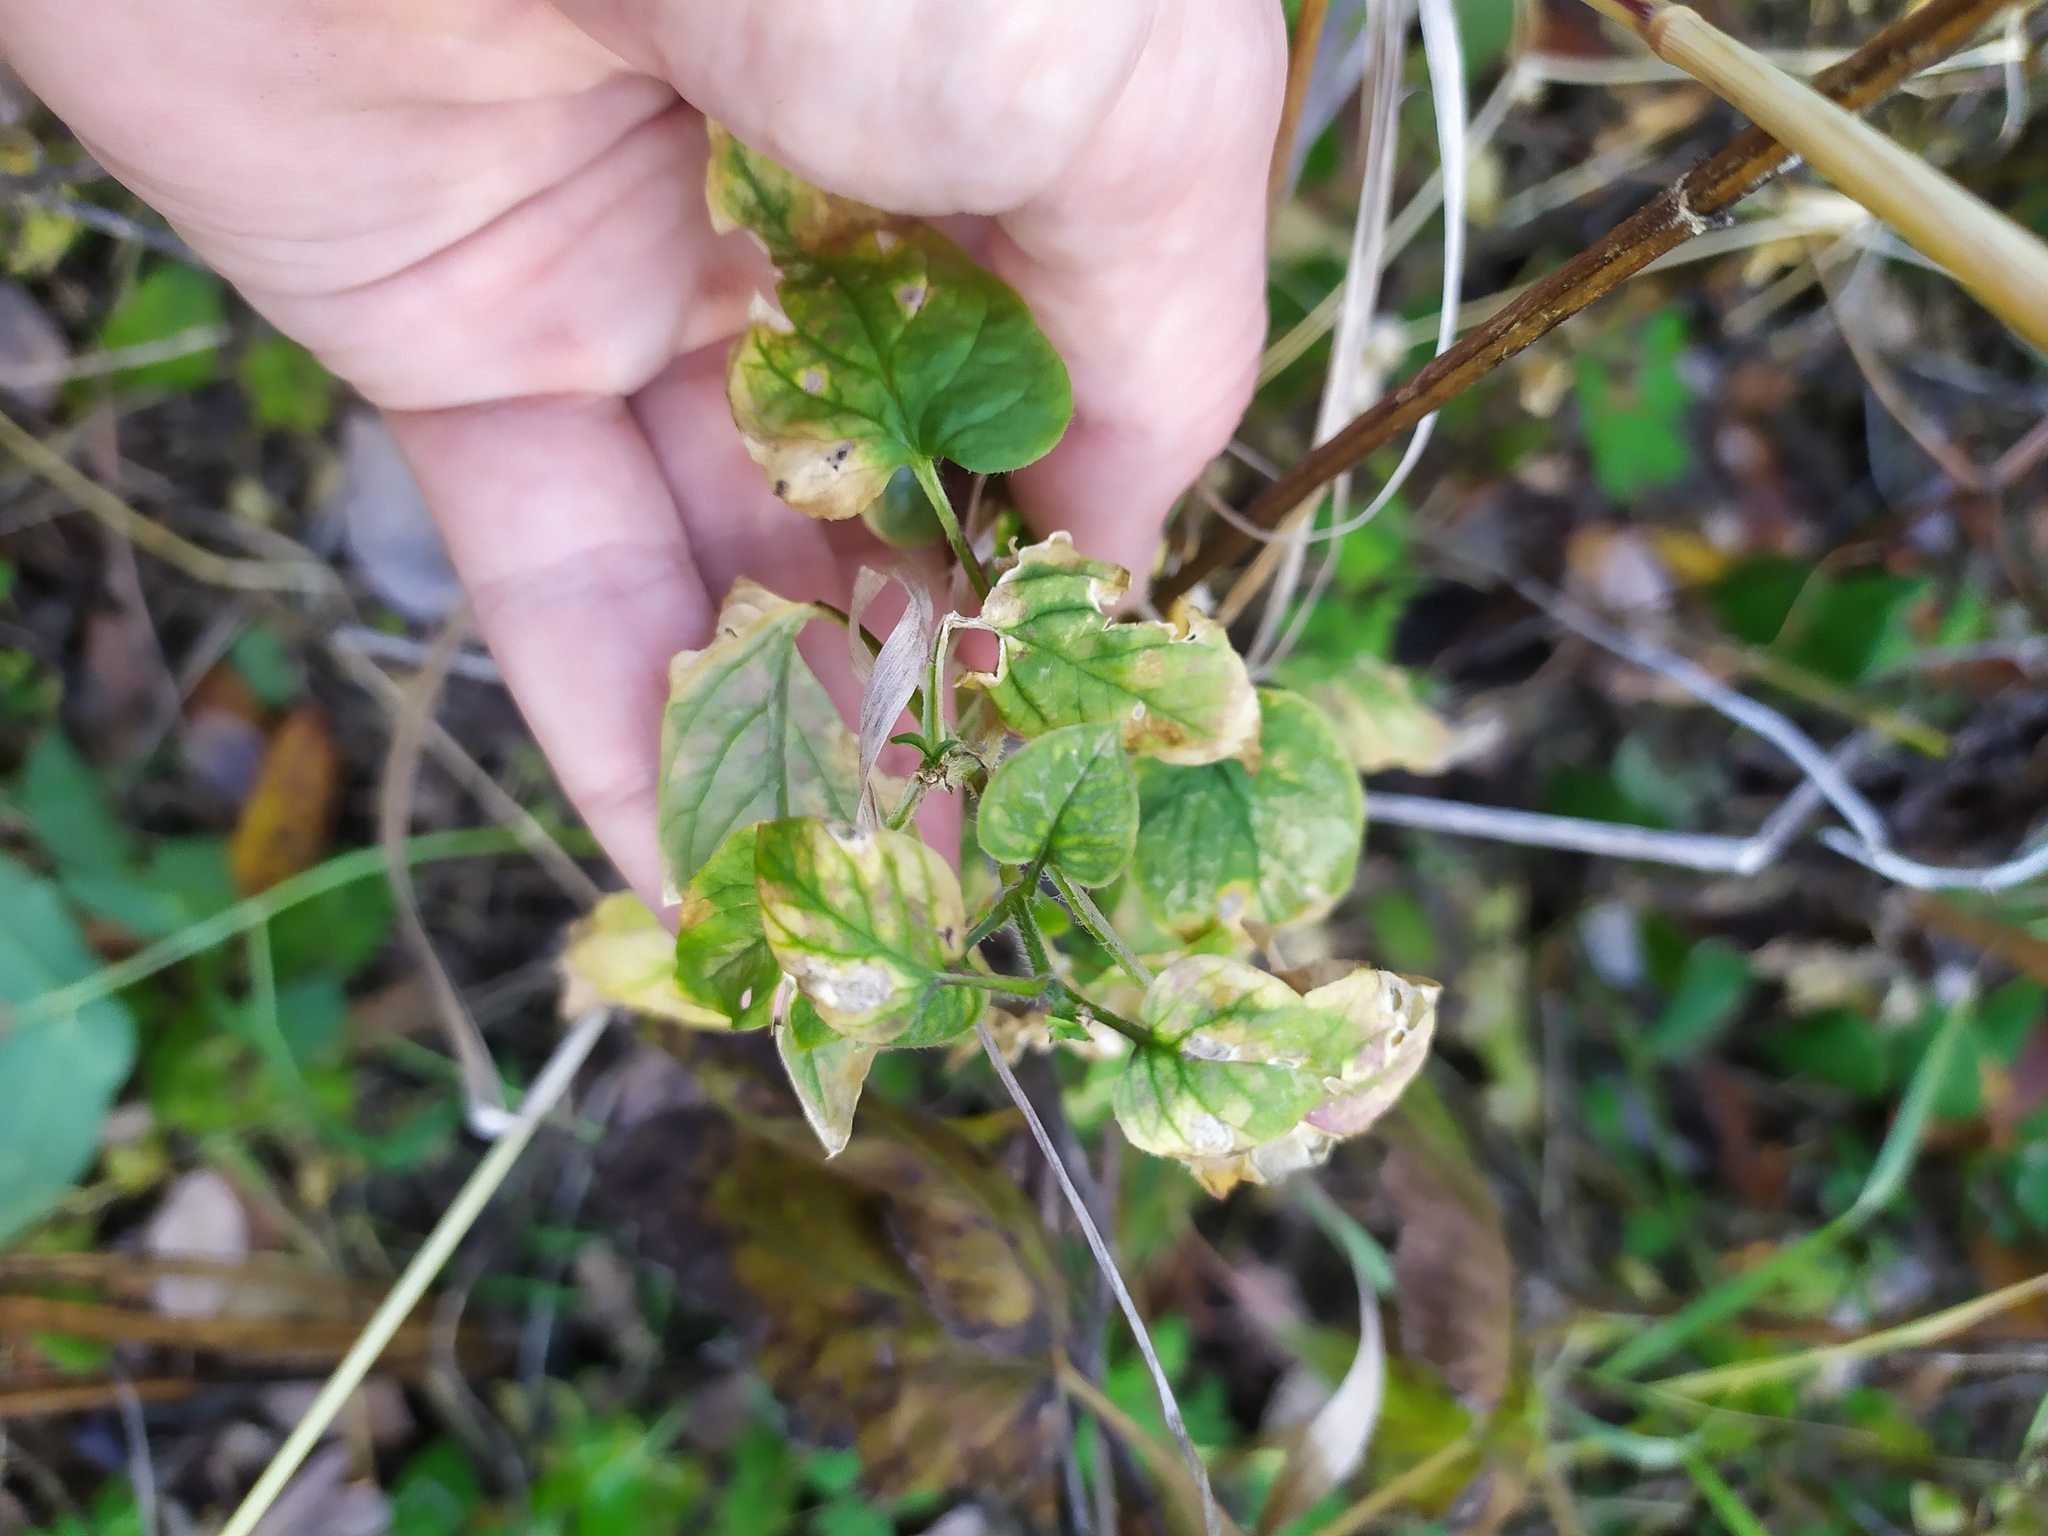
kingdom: Plantae
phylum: Tracheophyta
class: Magnoliopsida
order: Caryophyllales
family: Caryophyllaceae
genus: Stellaria
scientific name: Stellaria nemorum
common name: Wood stitchwort
